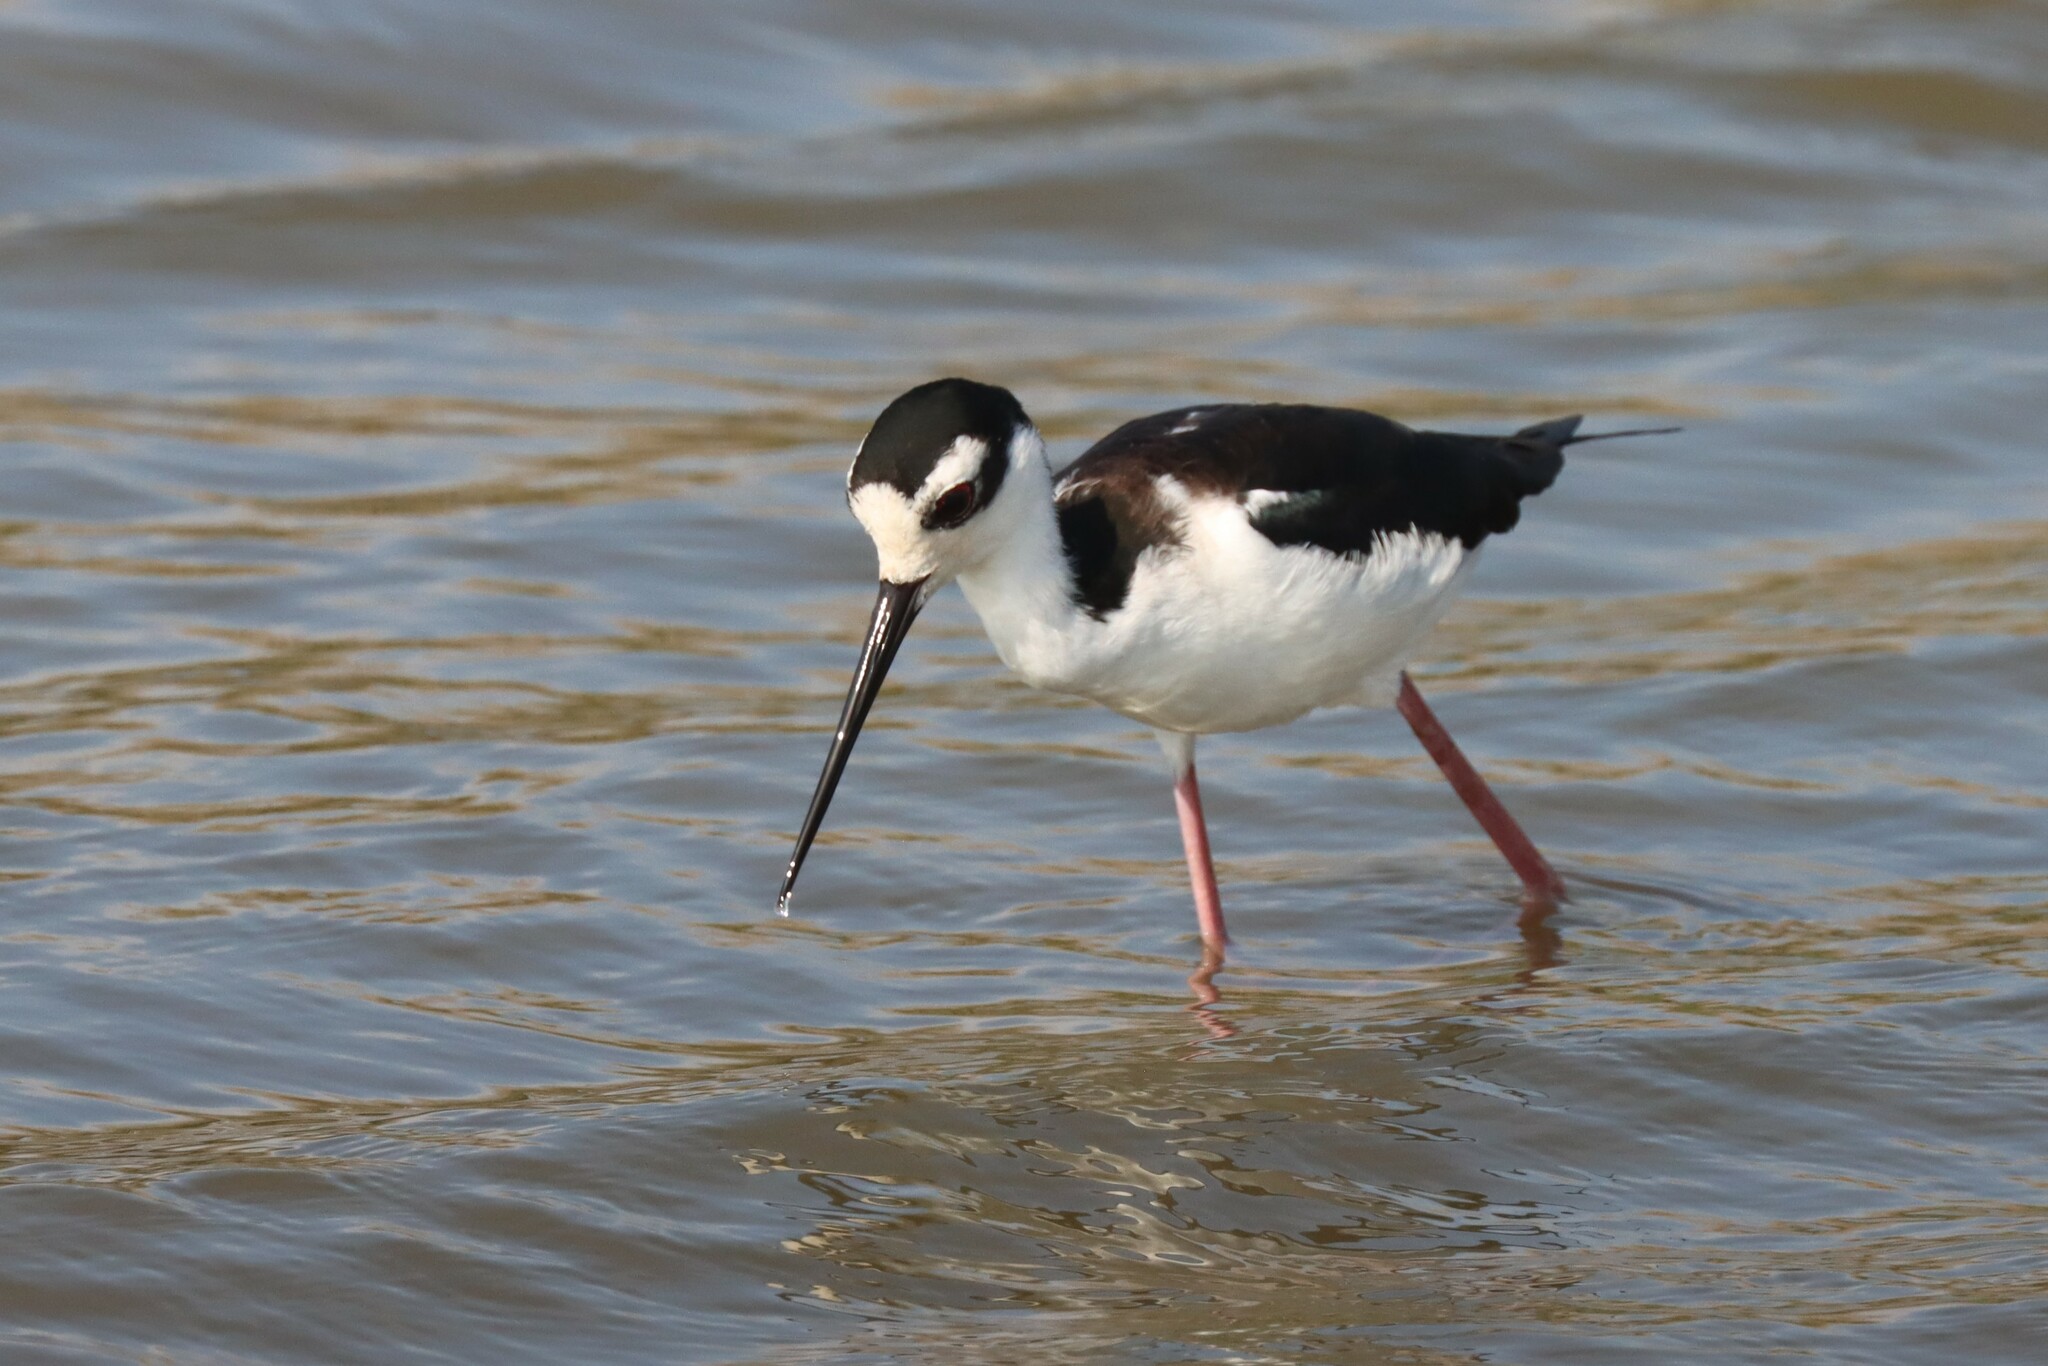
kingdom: Animalia
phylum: Chordata
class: Aves
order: Charadriiformes
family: Recurvirostridae
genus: Himantopus
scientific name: Himantopus mexicanus
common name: Black-necked stilt
